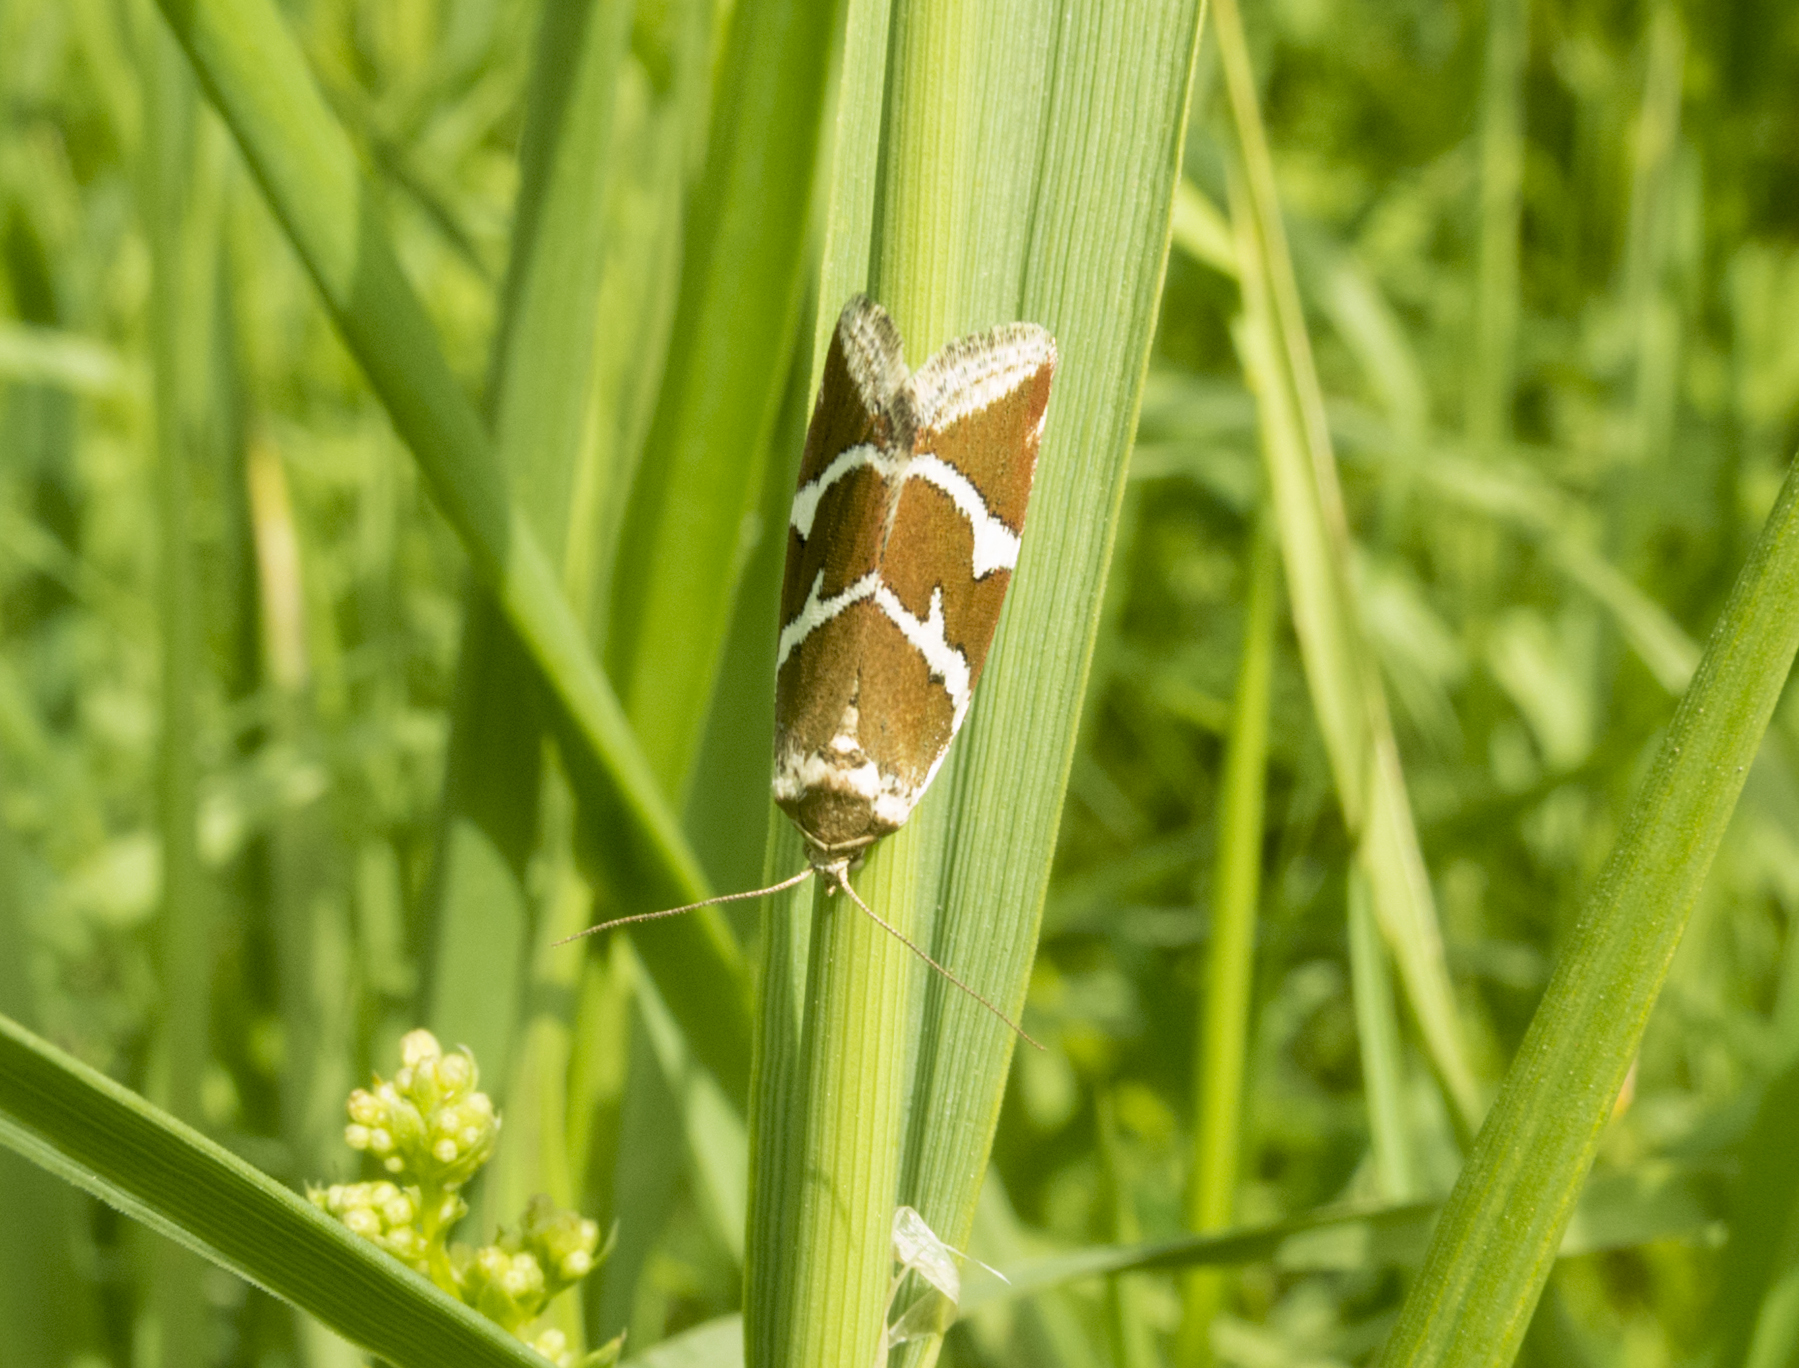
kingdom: Animalia
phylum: Arthropoda
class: Insecta
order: Lepidoptera
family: Noctuidae
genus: Deltote
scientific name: Deltote bankiana
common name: Silver barred
